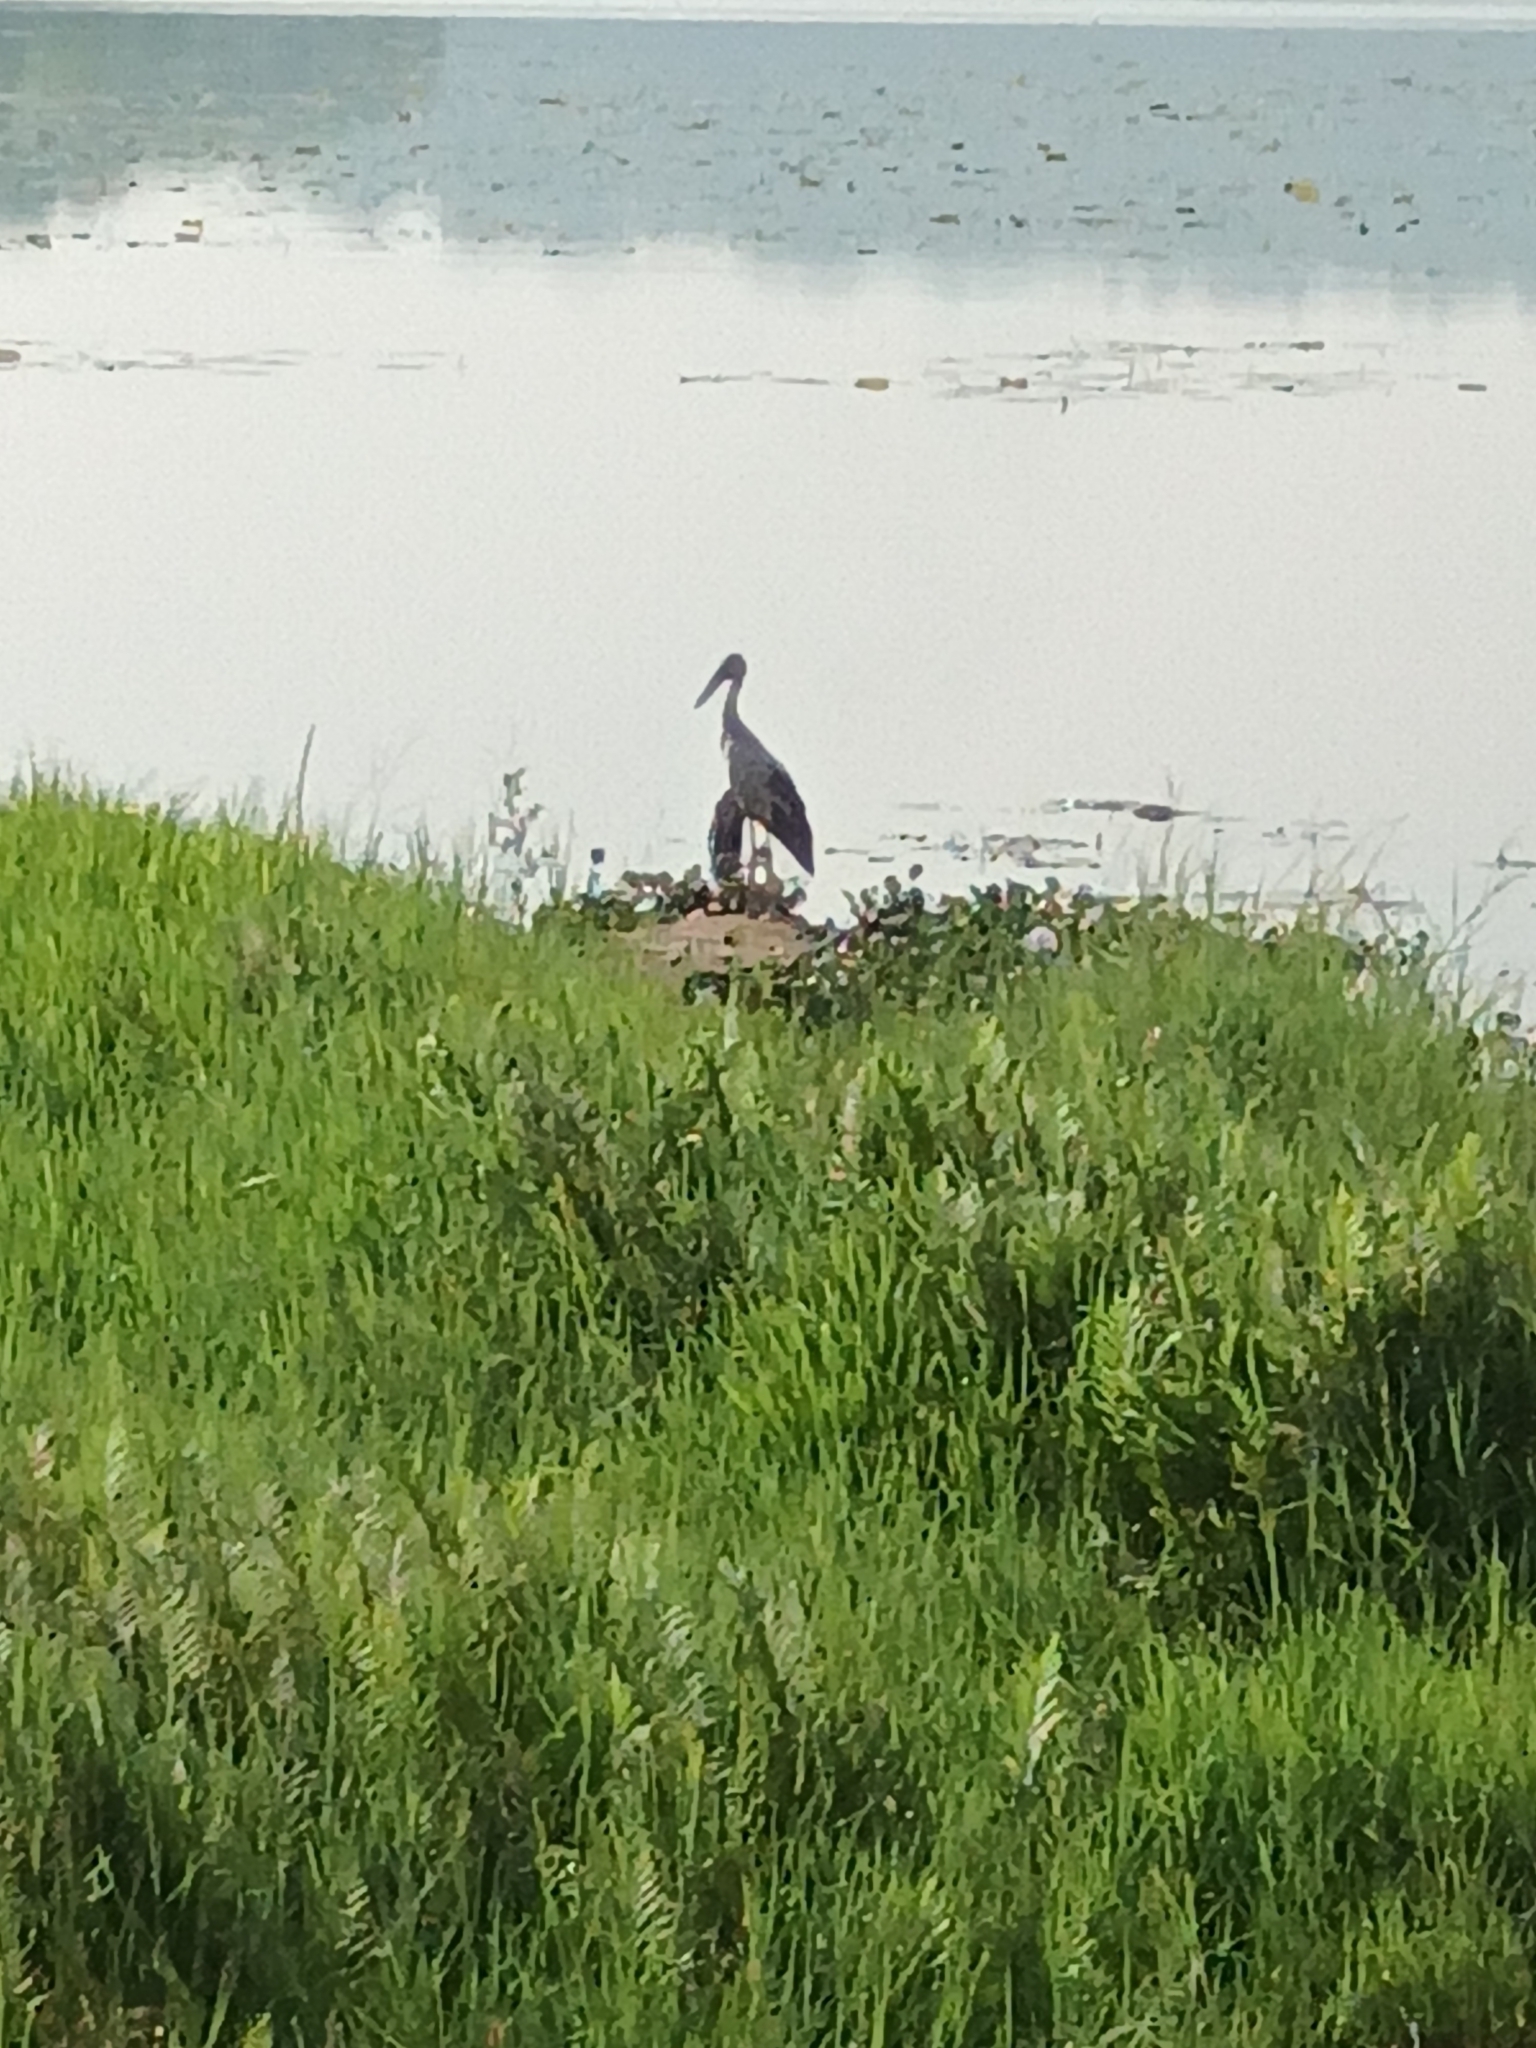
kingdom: Animalia
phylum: Chordata
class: Aves
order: Ciconiiformes
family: Ciconiidae
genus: Anastomus
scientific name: Anastomus oscitans
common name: Asian openbill
